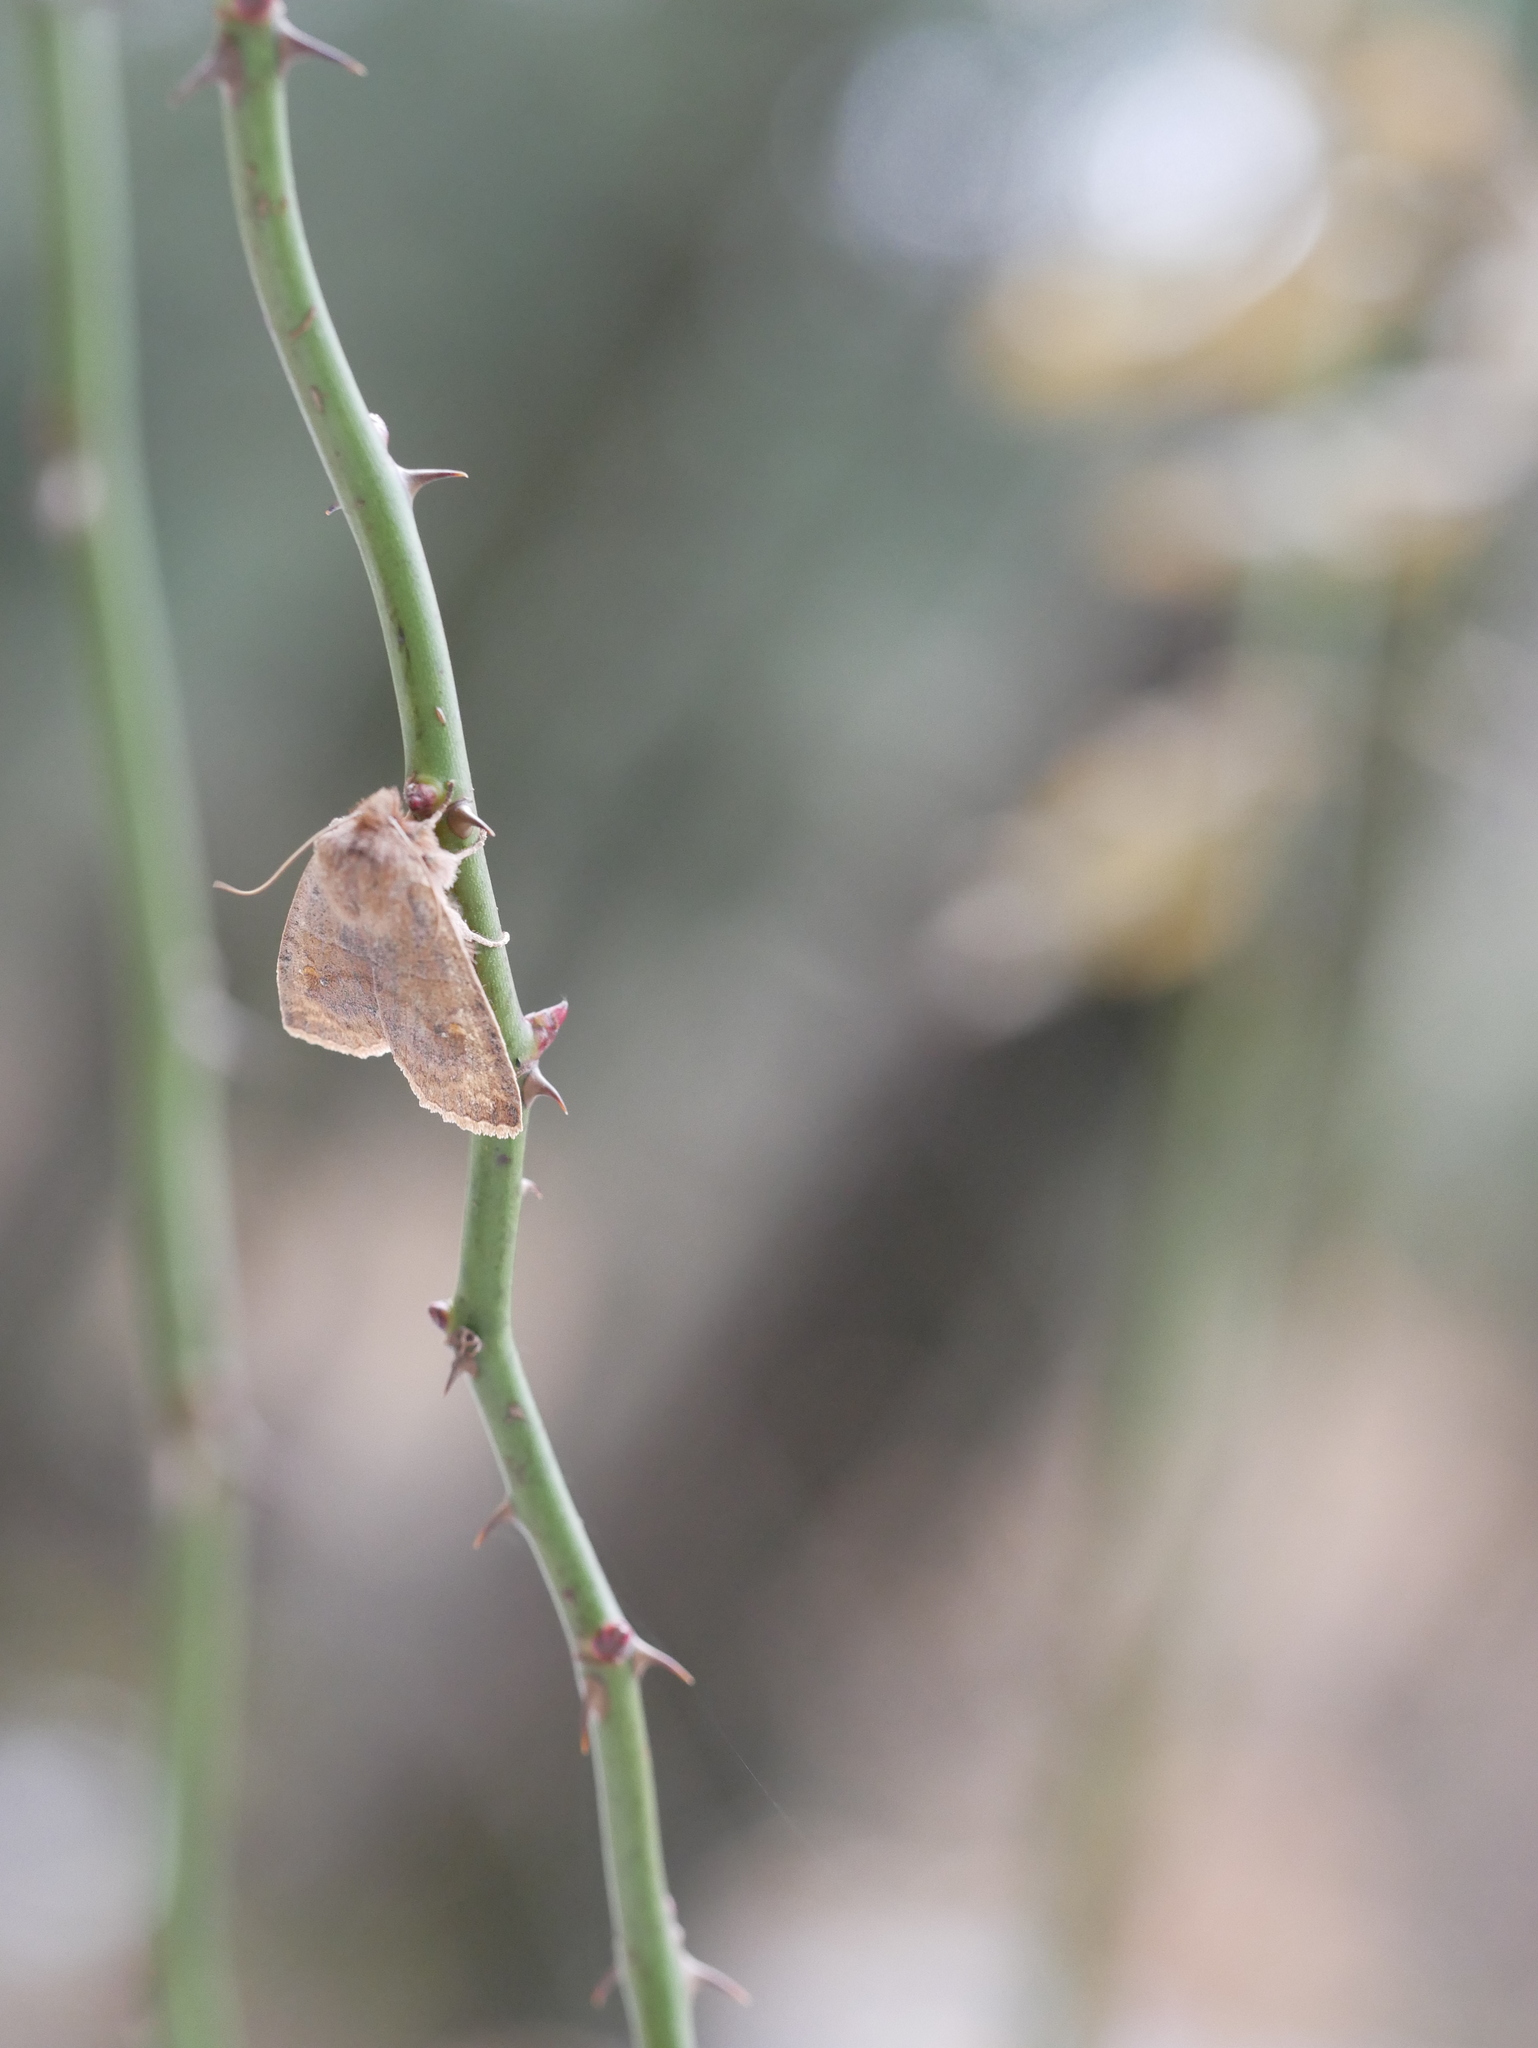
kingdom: Animalia
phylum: Arthropoda
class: Insecta
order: Lepidoptera
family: Noctuidae
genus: Eupsilia
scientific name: Eupsilia vinulenta
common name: Straight-toothed sallow
